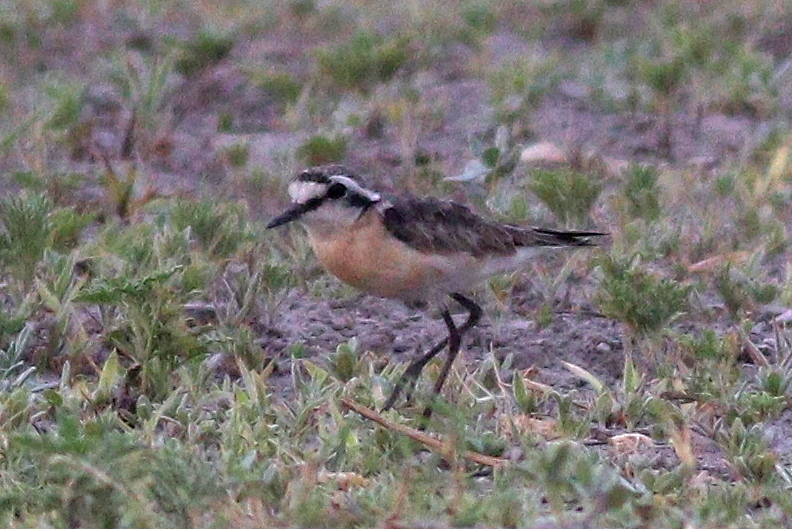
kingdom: Animalia
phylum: Chordata
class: Aves
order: Charadriiformes
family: Charadriidae
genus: Anarhynchus
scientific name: Anarhynchus
